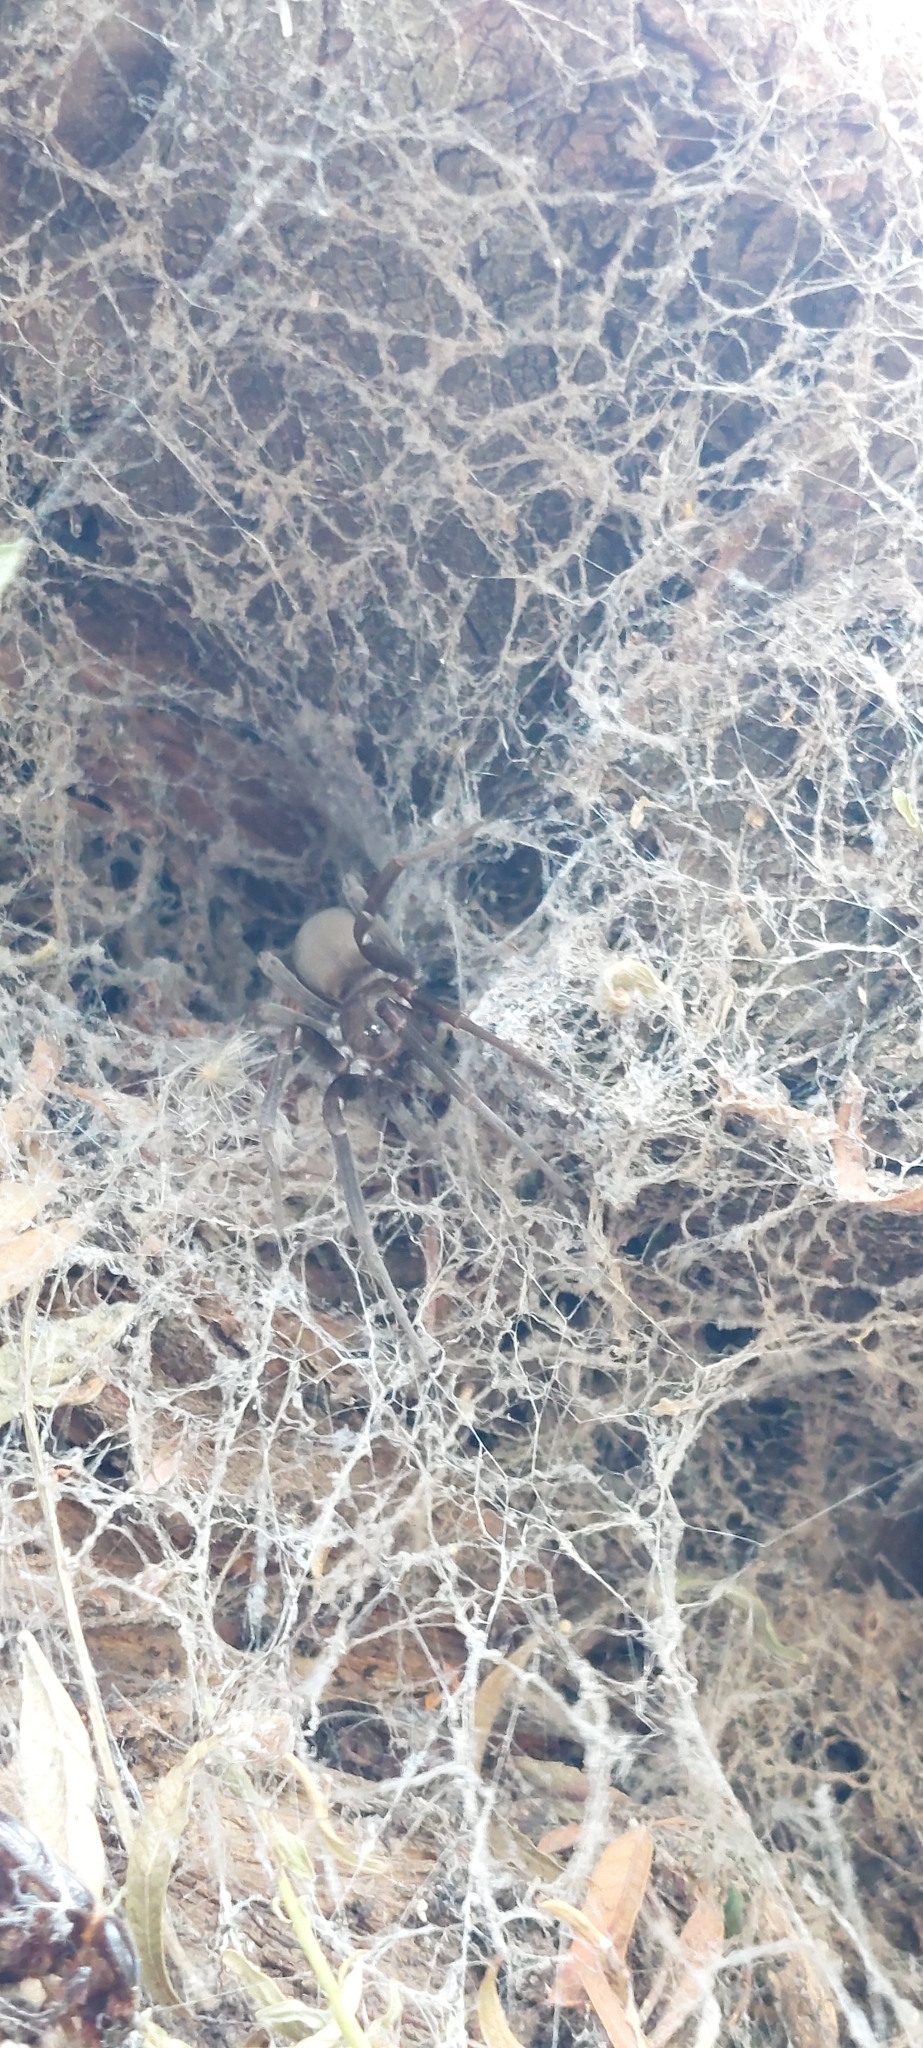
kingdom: Animalia
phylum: Arthropoda
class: Arachnida
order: Araneae
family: Filistatidae
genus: Kukulcania
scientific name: Kukulcania hibernalis
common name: Crevice weaver
